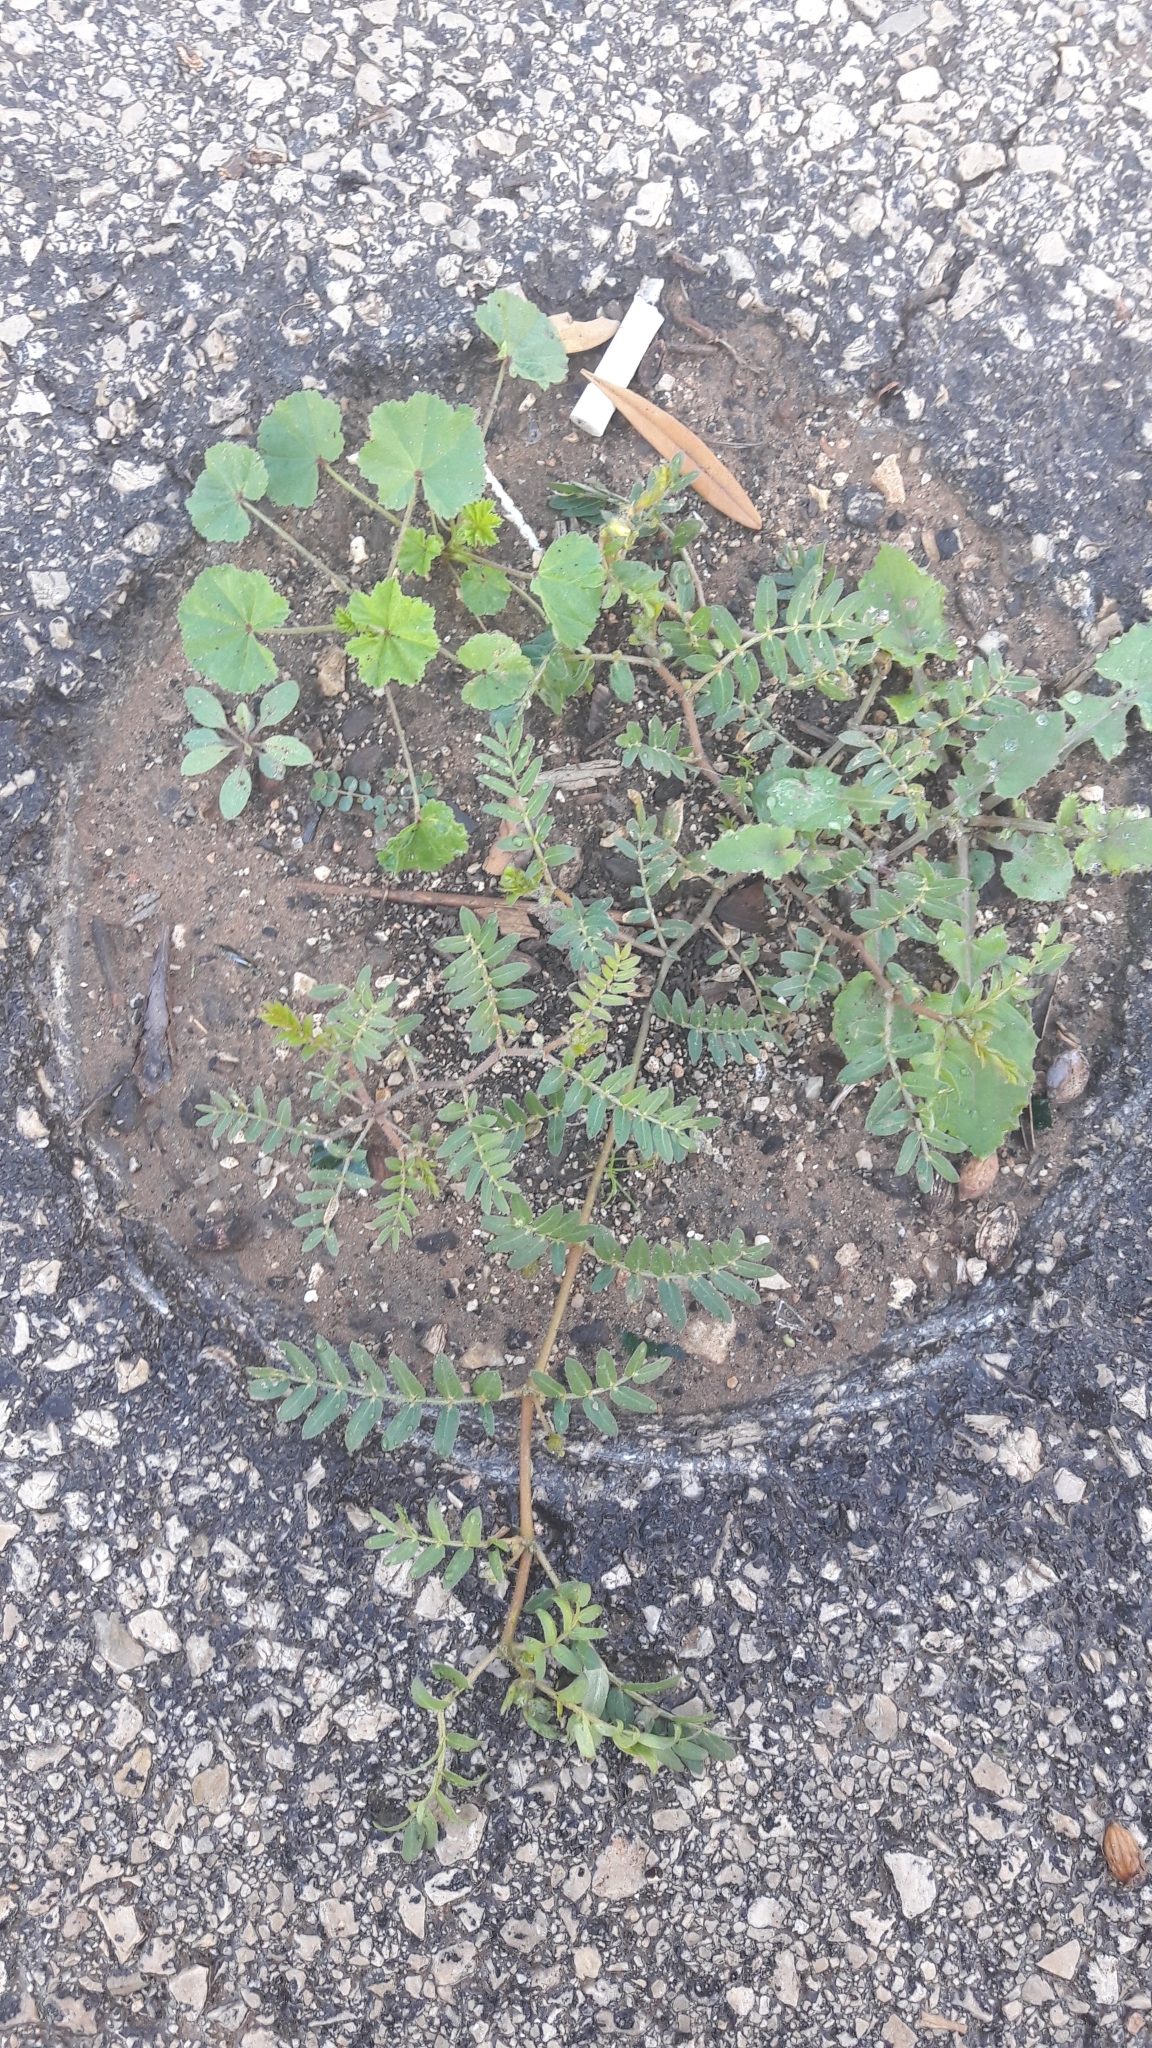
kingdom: Plantae
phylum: Tracheophyta
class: Magnoliopsida
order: Zygophyllales
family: Zygophyllaceae
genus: Tribulus
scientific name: Tribulus terrestris
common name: Puncturevine
